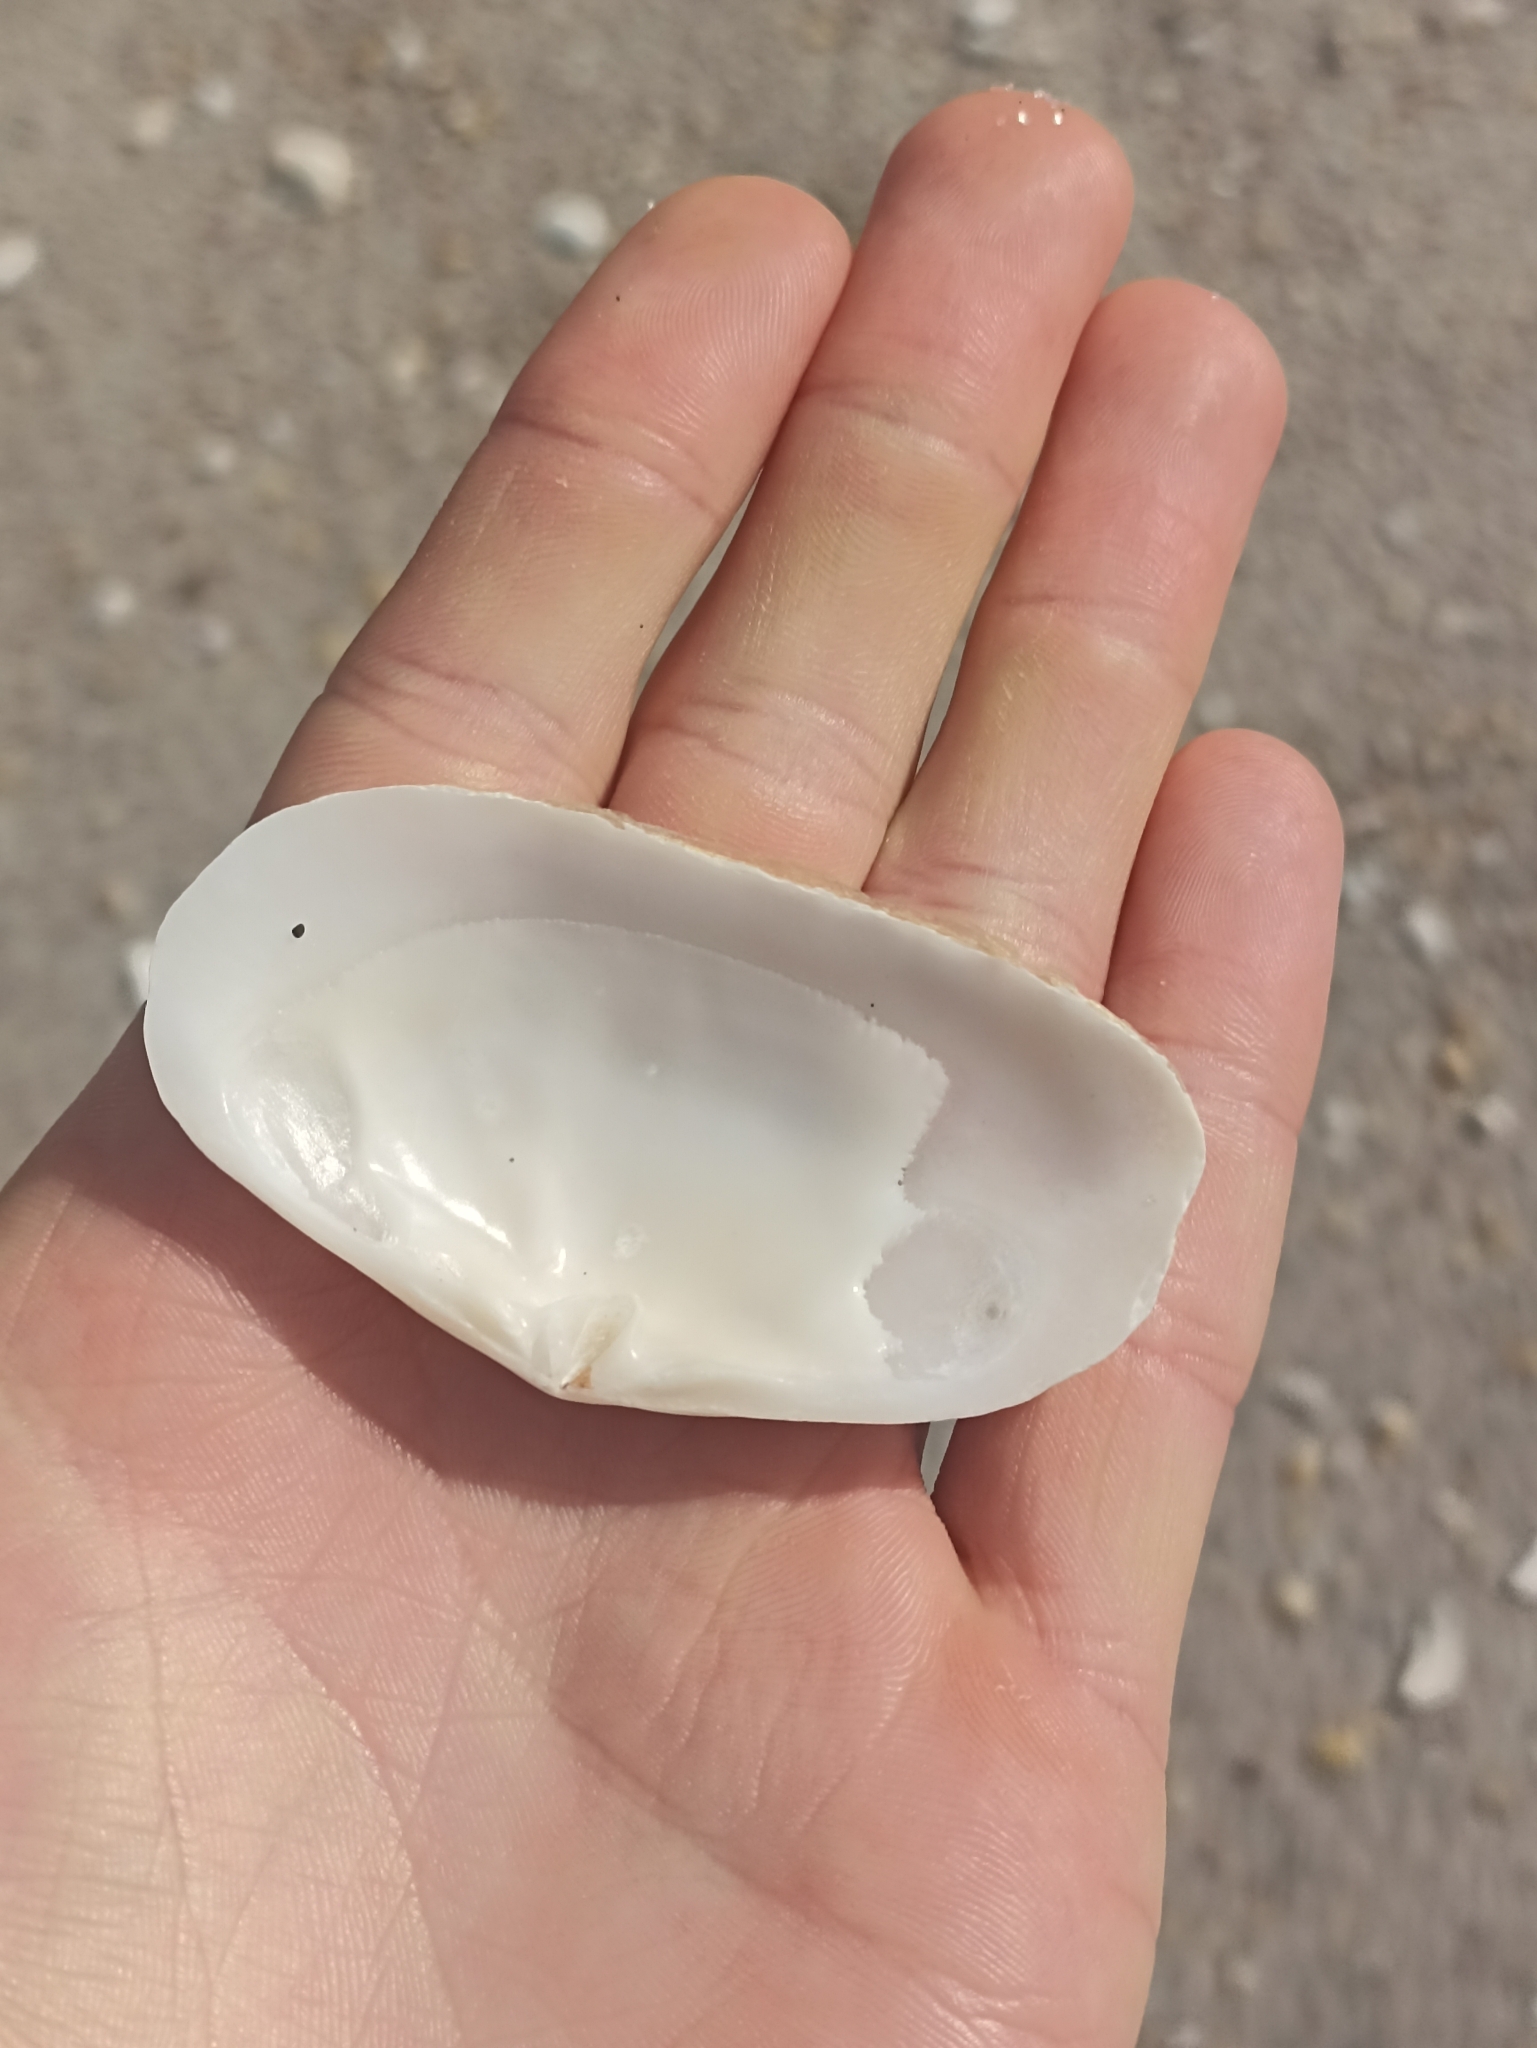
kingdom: Animalia
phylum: Mollusca
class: Bivalvia
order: Venerida
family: Mesodesmatidae
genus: Paphies
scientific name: Paphies australis
